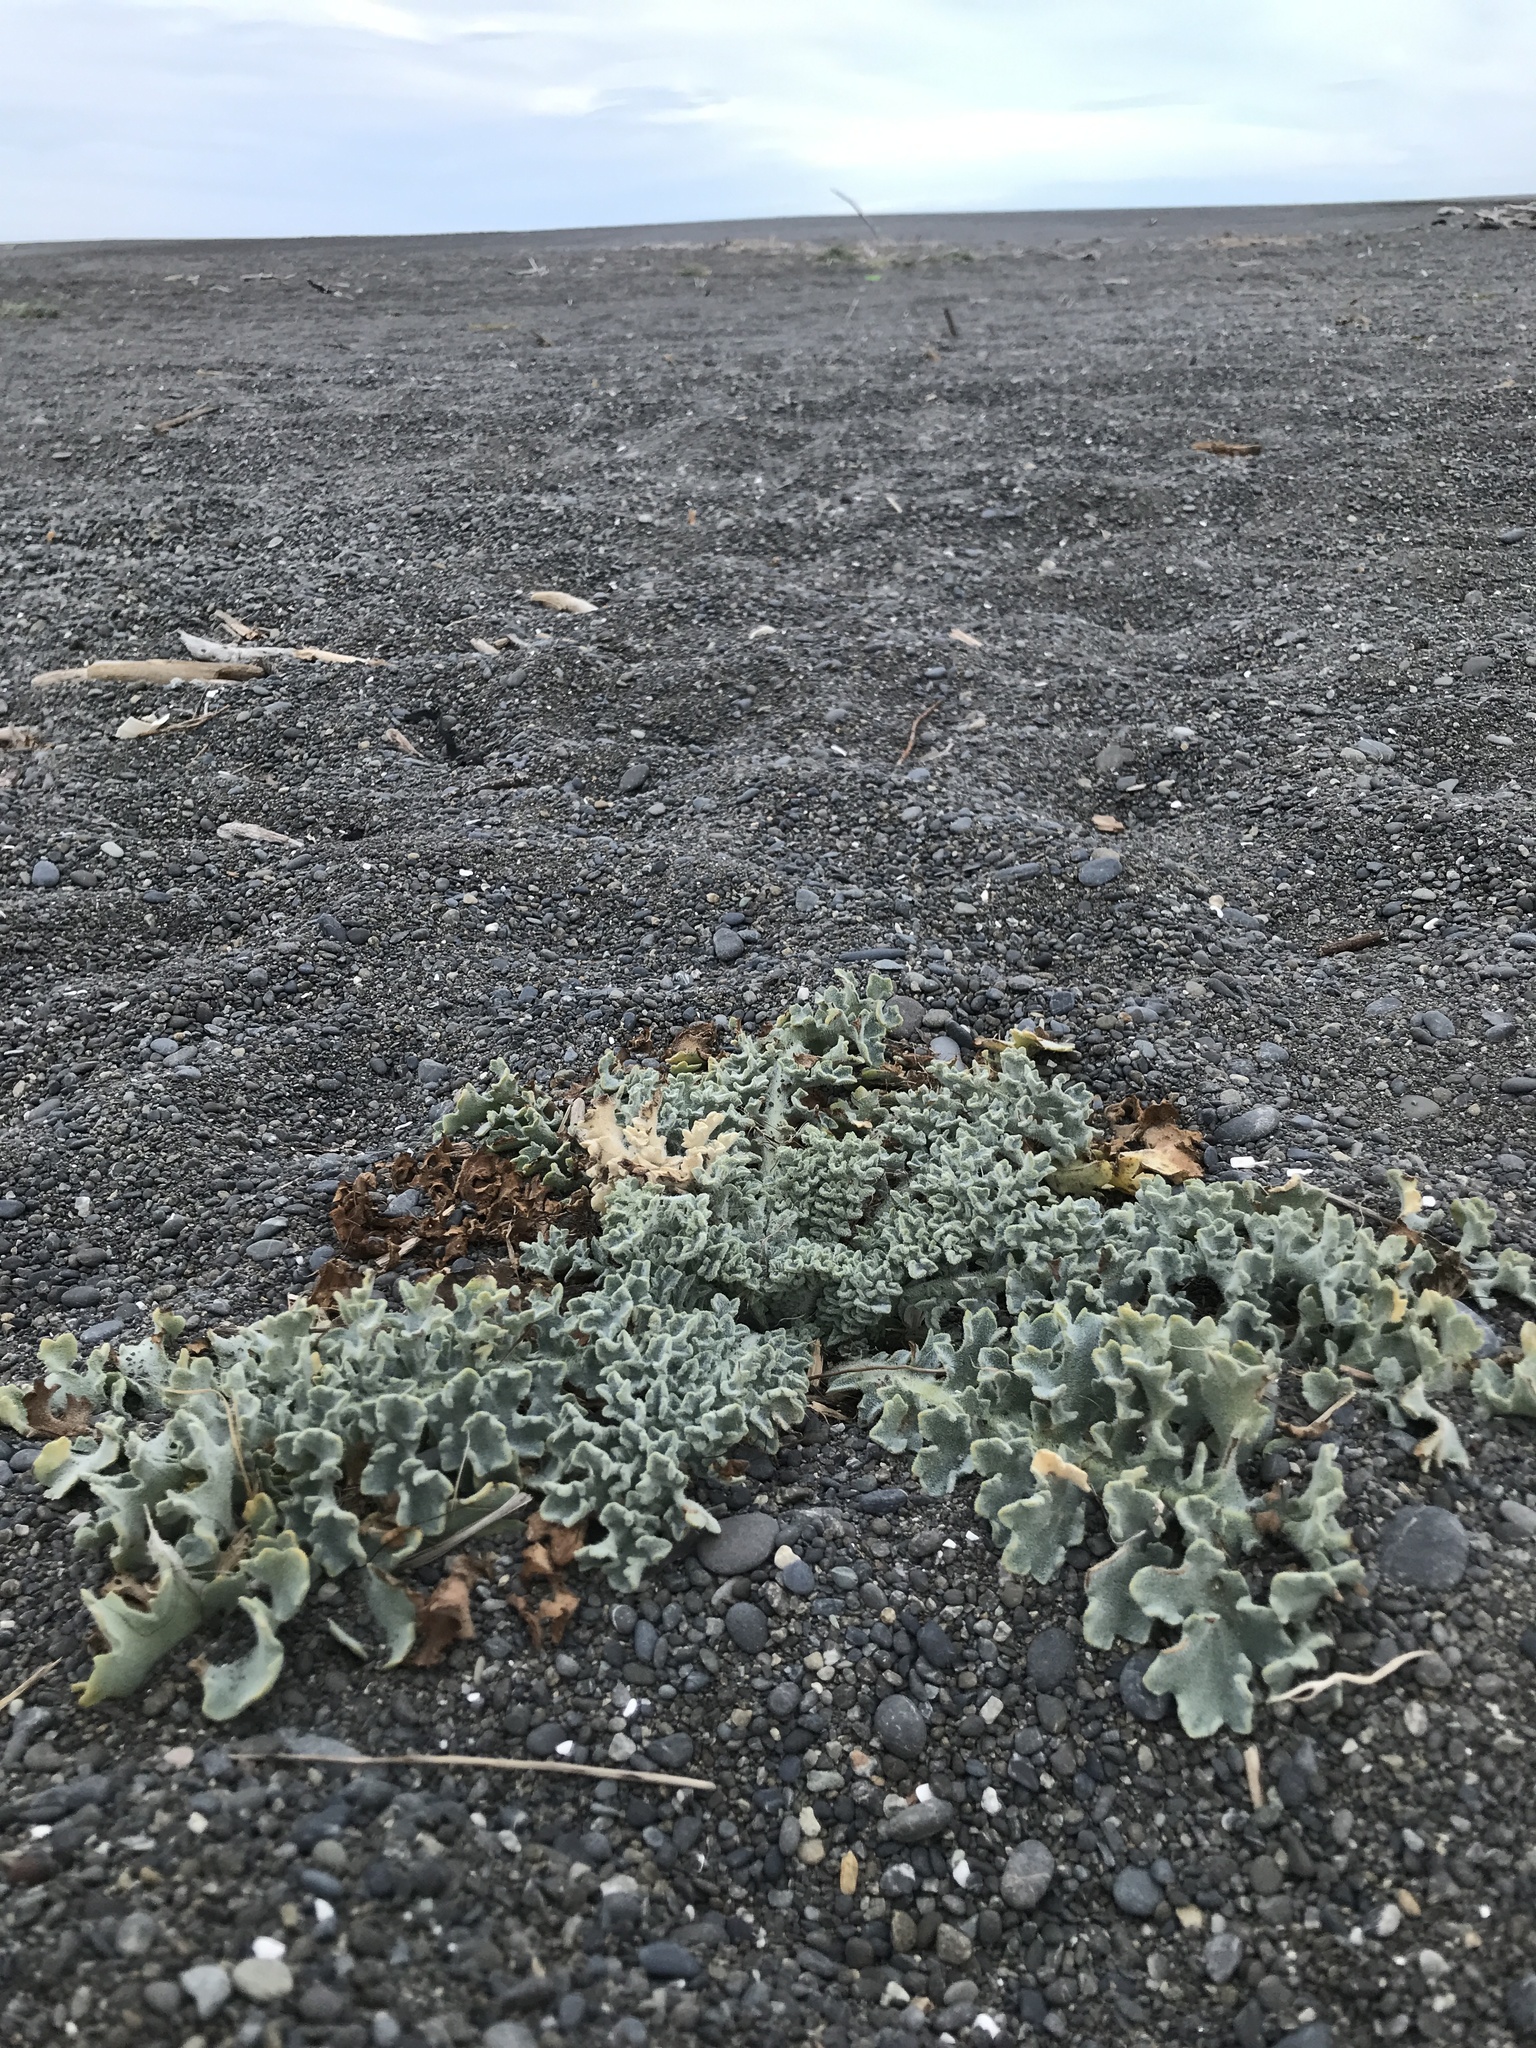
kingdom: Plantae
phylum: Tracheophyta
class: Magnoliopsida
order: Ranunculales
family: Papaveraceae
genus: Glaucium
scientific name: Glaucium flavum
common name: Yellow horned-poppy
